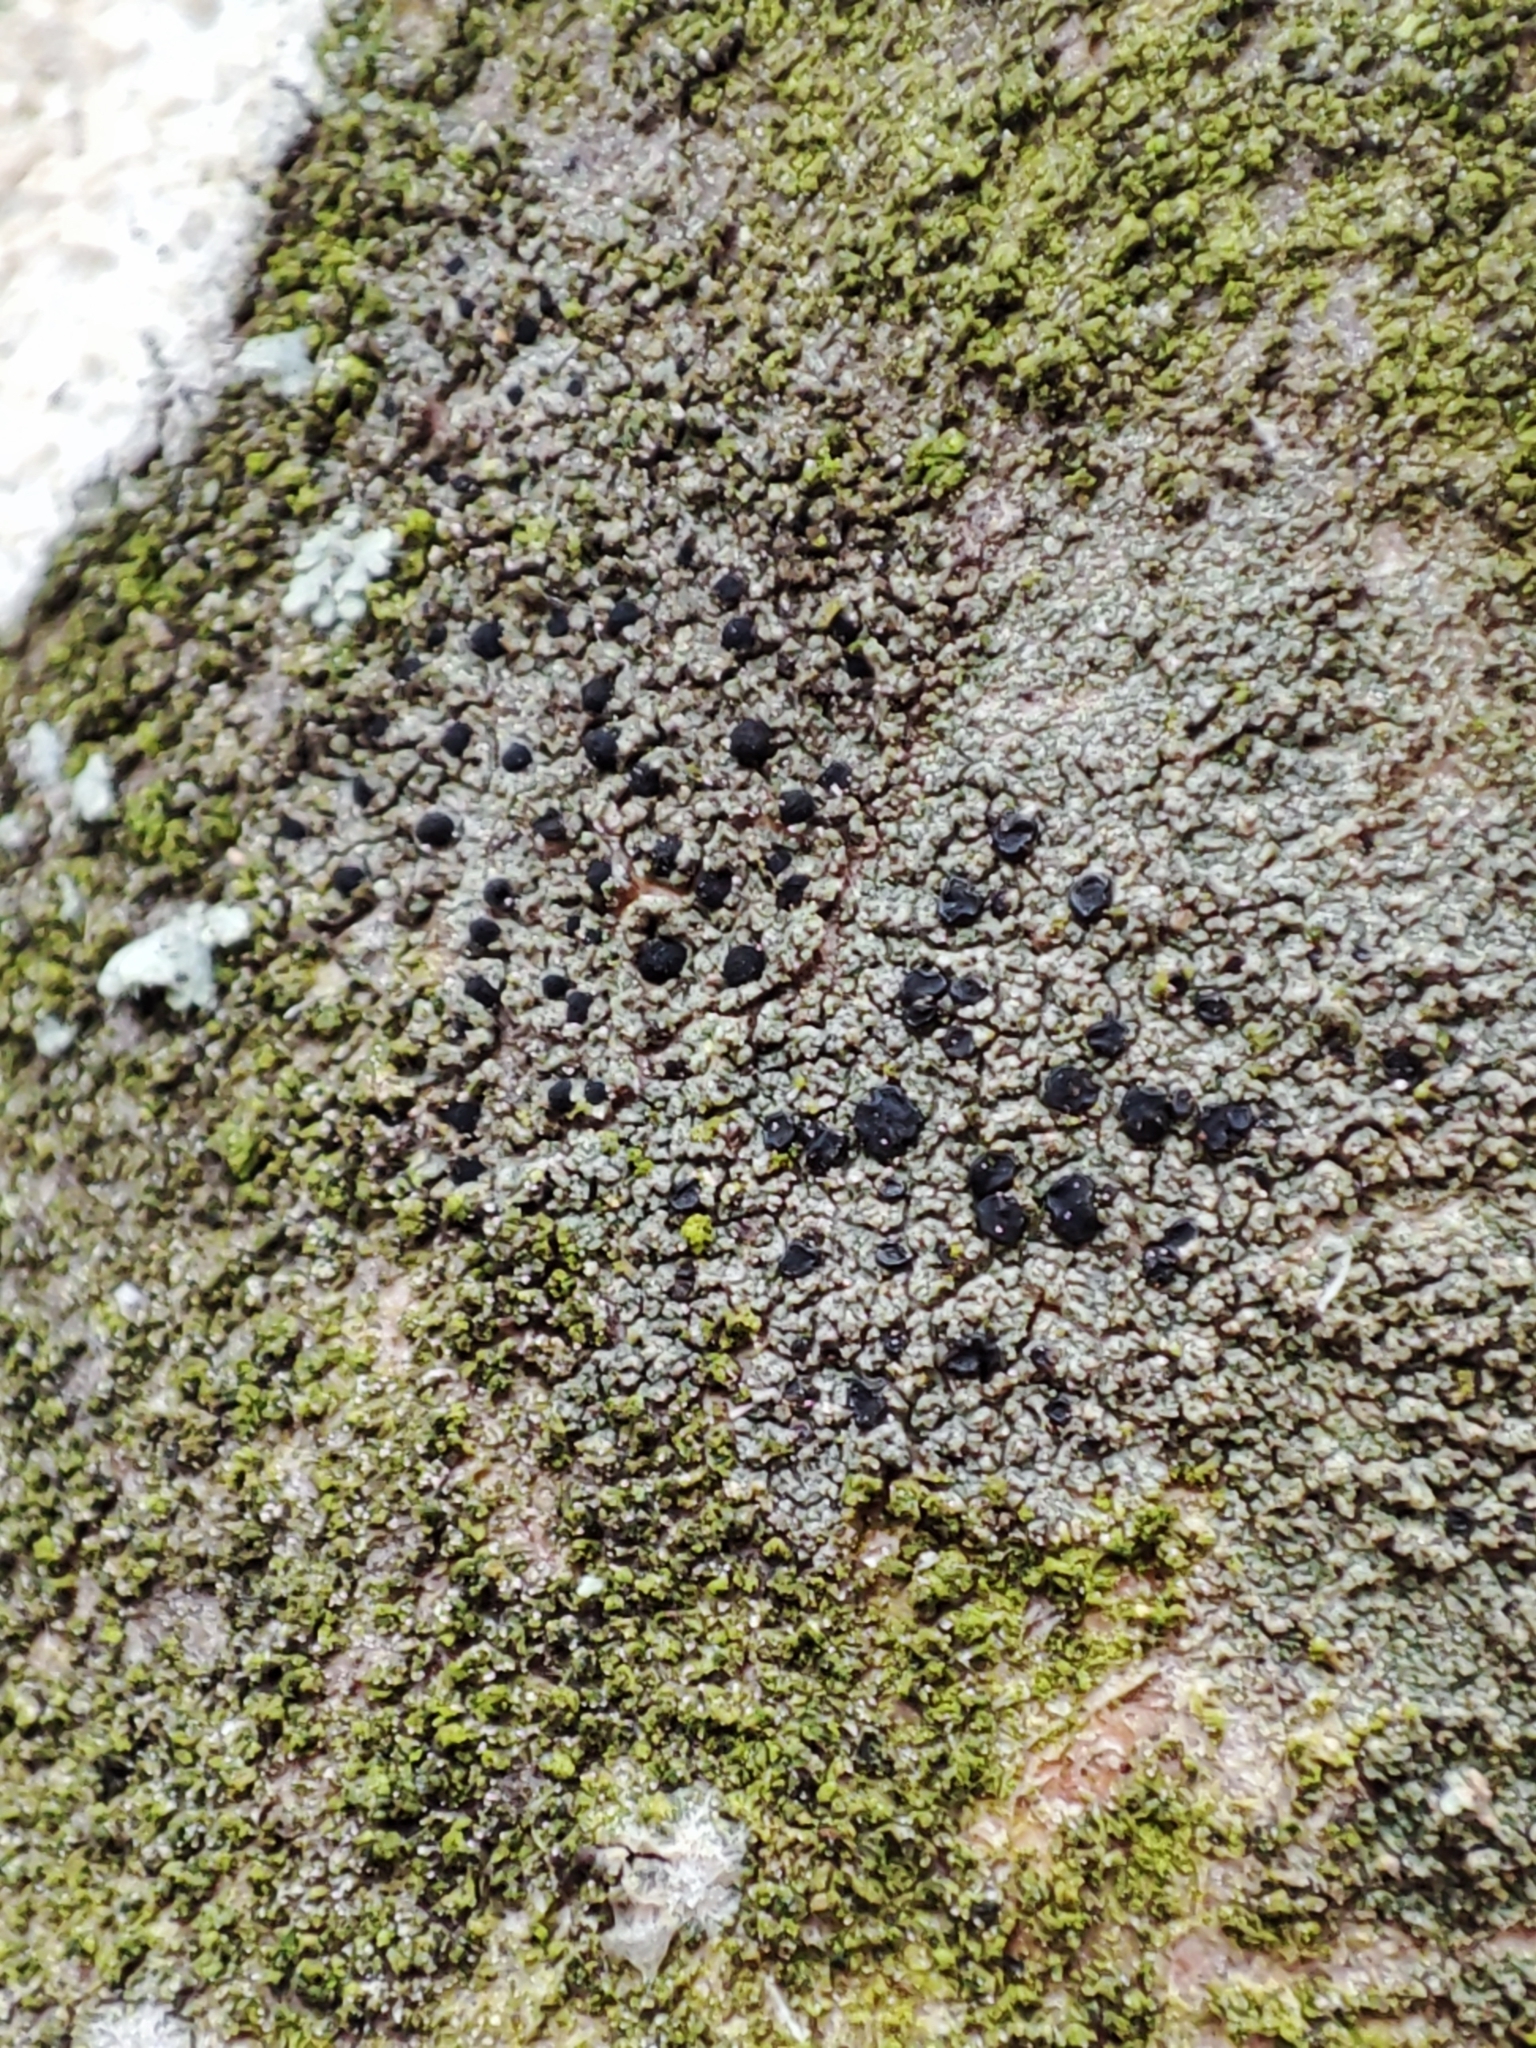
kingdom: Fungi
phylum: Ascomycota
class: Lecanoromycetes
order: Lecanorales
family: Lecanoraceae
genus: Lecidella
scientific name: Lecidella elaeochroma
